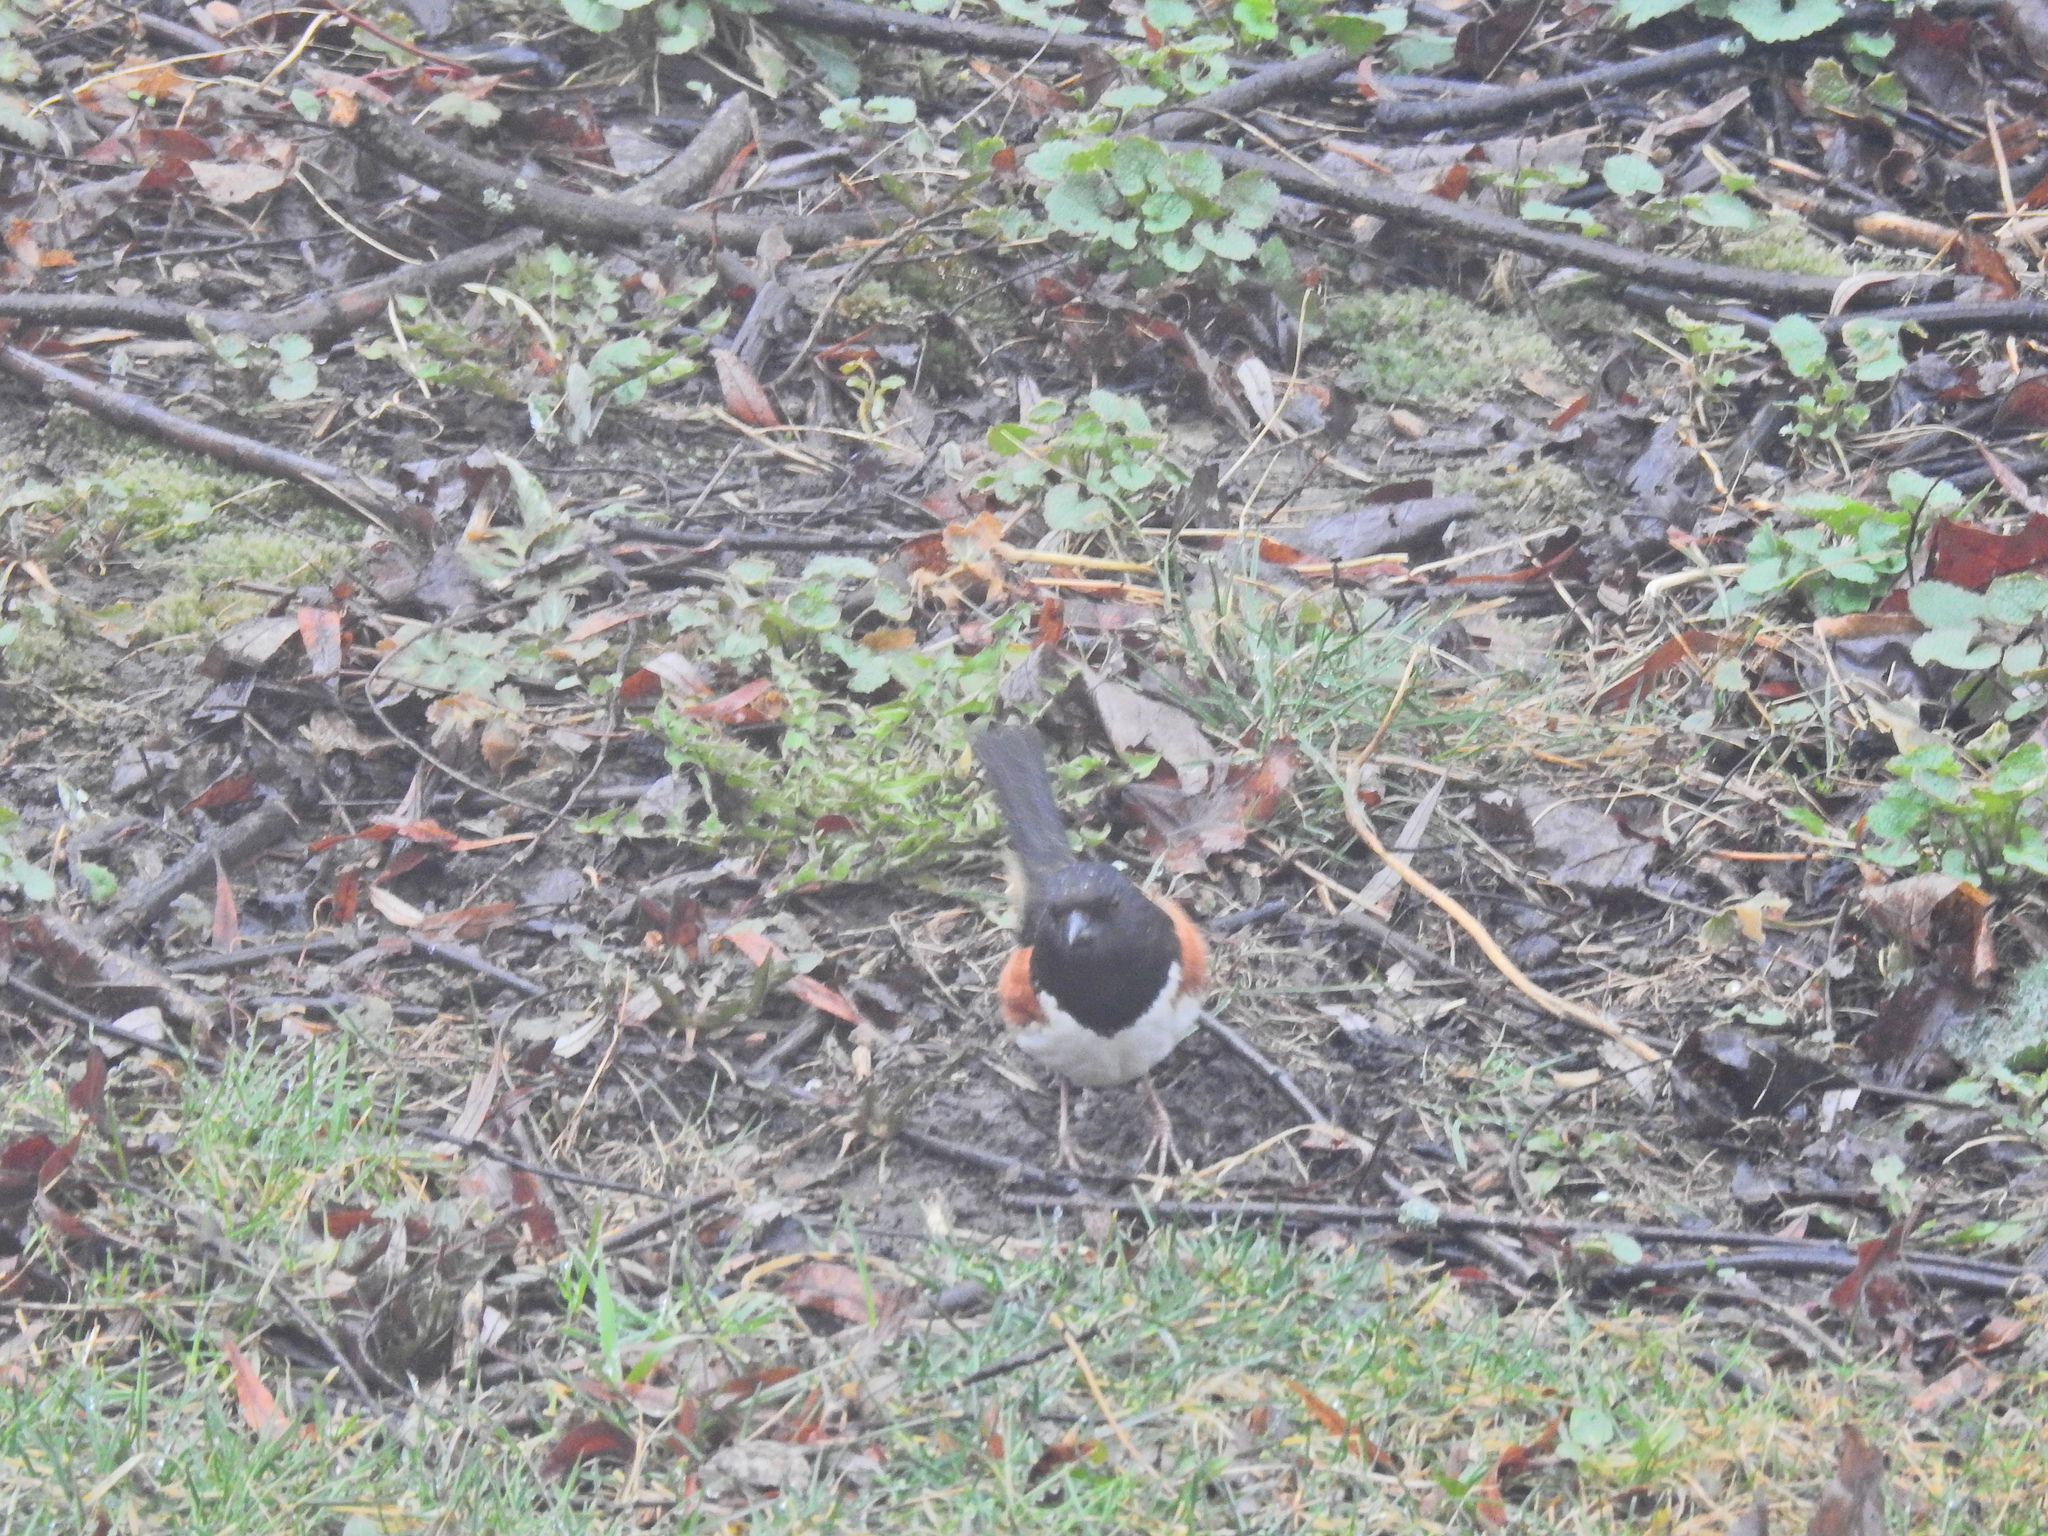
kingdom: Animalia
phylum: Chordata
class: Aves
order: Passeriformes
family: Passerellidae
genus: Pipilo
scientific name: Pipilo erythrophthalmus
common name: Eastern towhee
